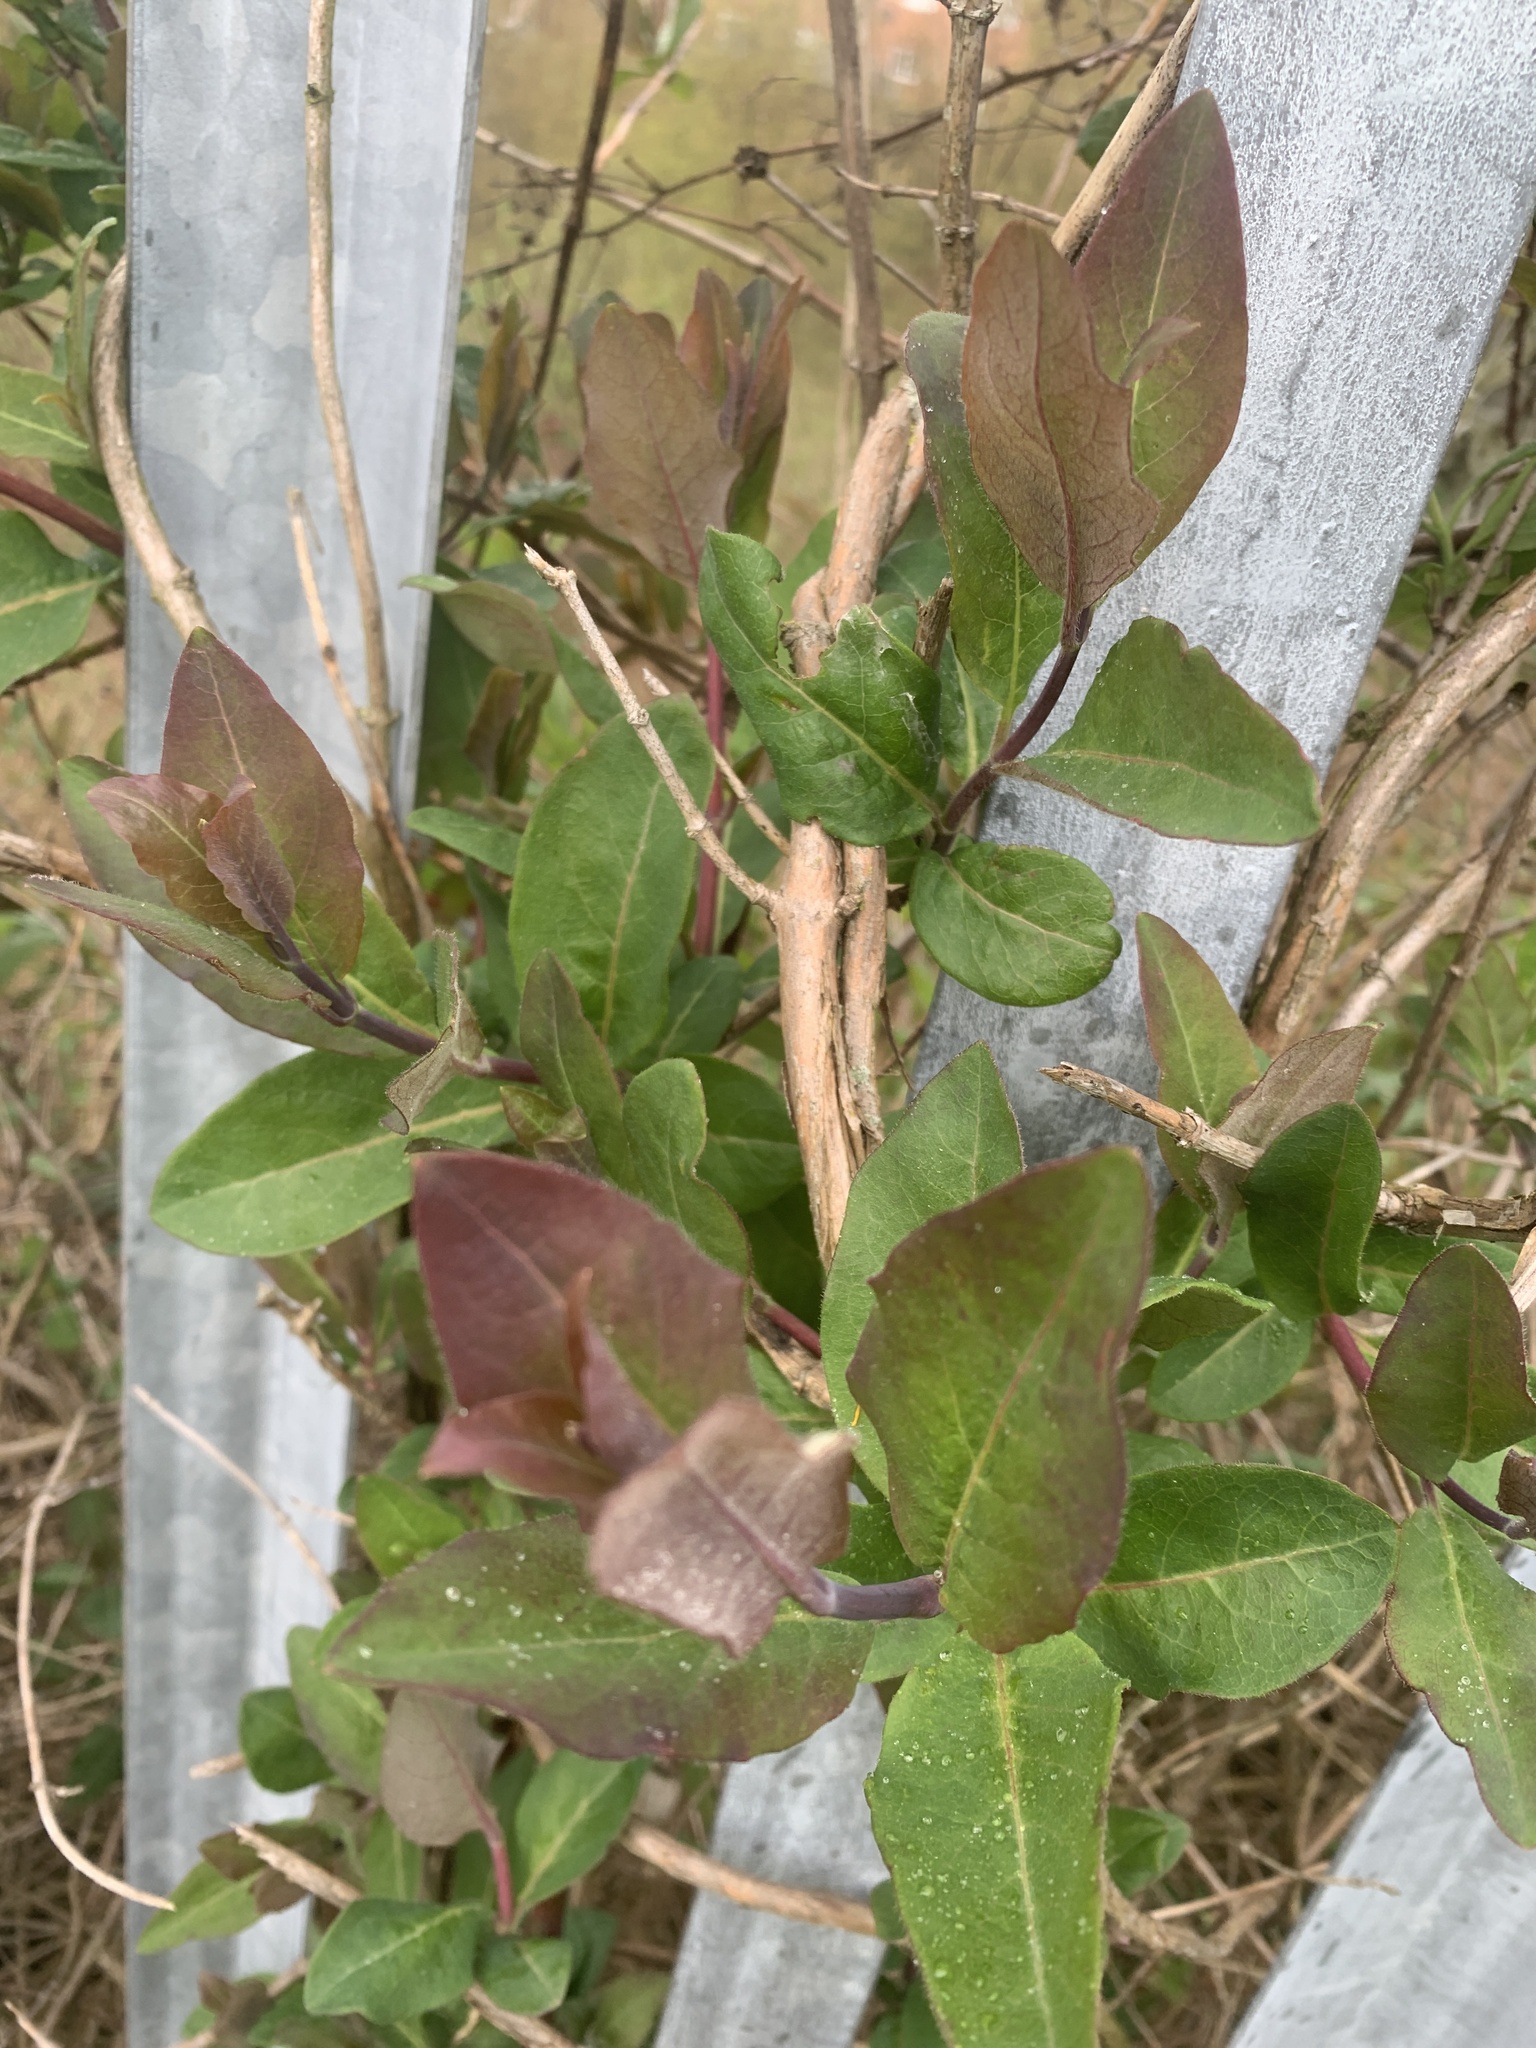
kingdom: Plantae
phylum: Tracheophyta
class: Magnoliopsida
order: Dipsacales
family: Caprifoliaceae
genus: Lonicera
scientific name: Lonicera periclymenum
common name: European honeysuckle
